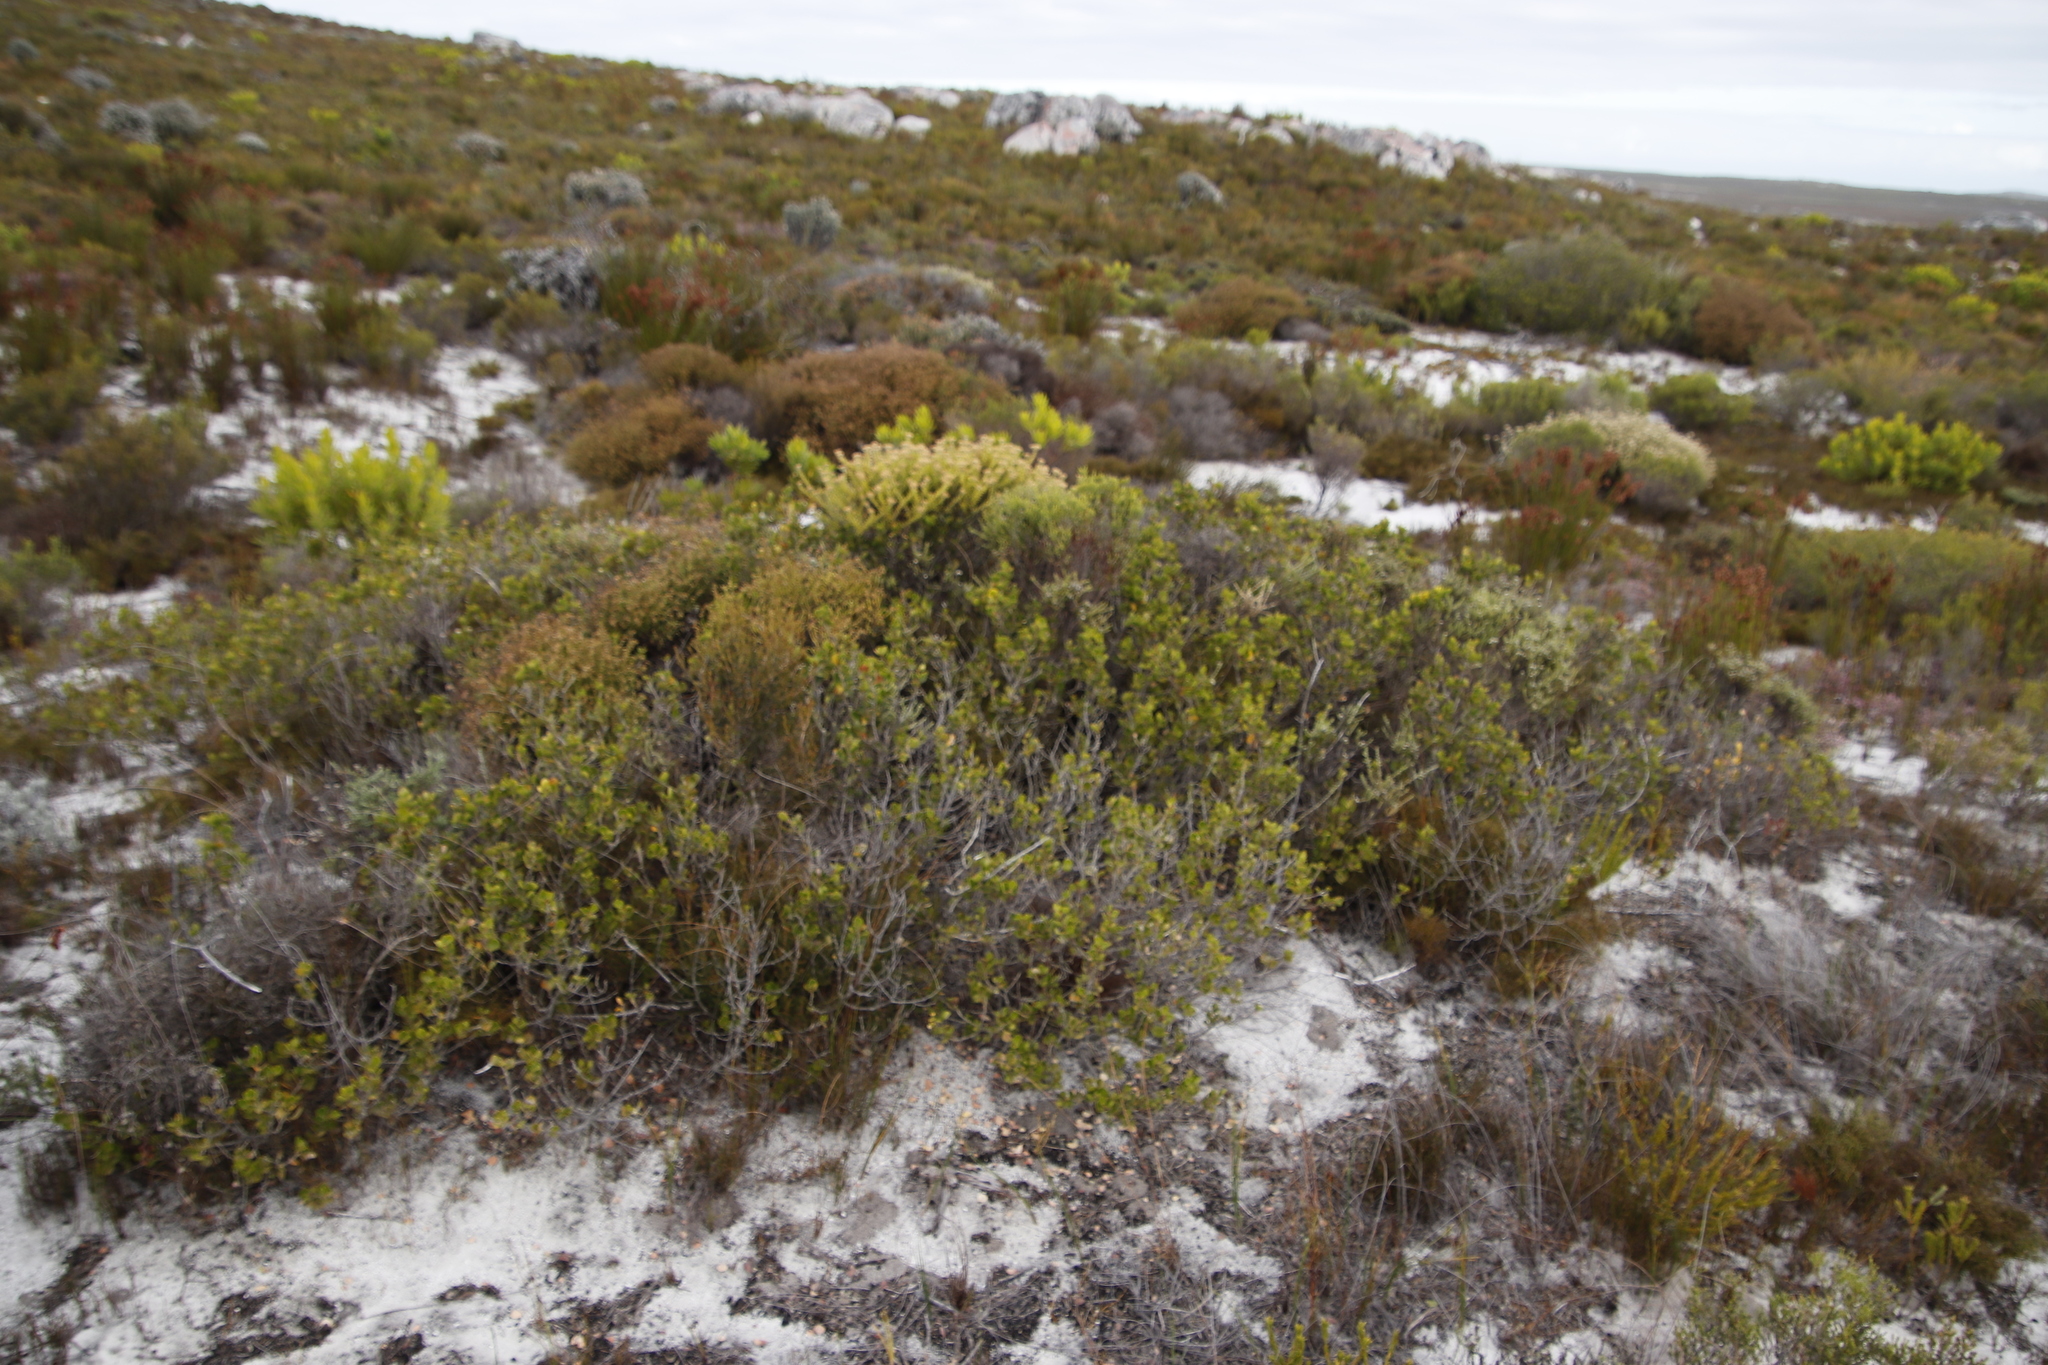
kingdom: Plantae
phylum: Tracheophyta
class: Magnoliopsida
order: Sapindales
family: Anacardiaceae
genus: Searsia
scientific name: Searsia lucida
